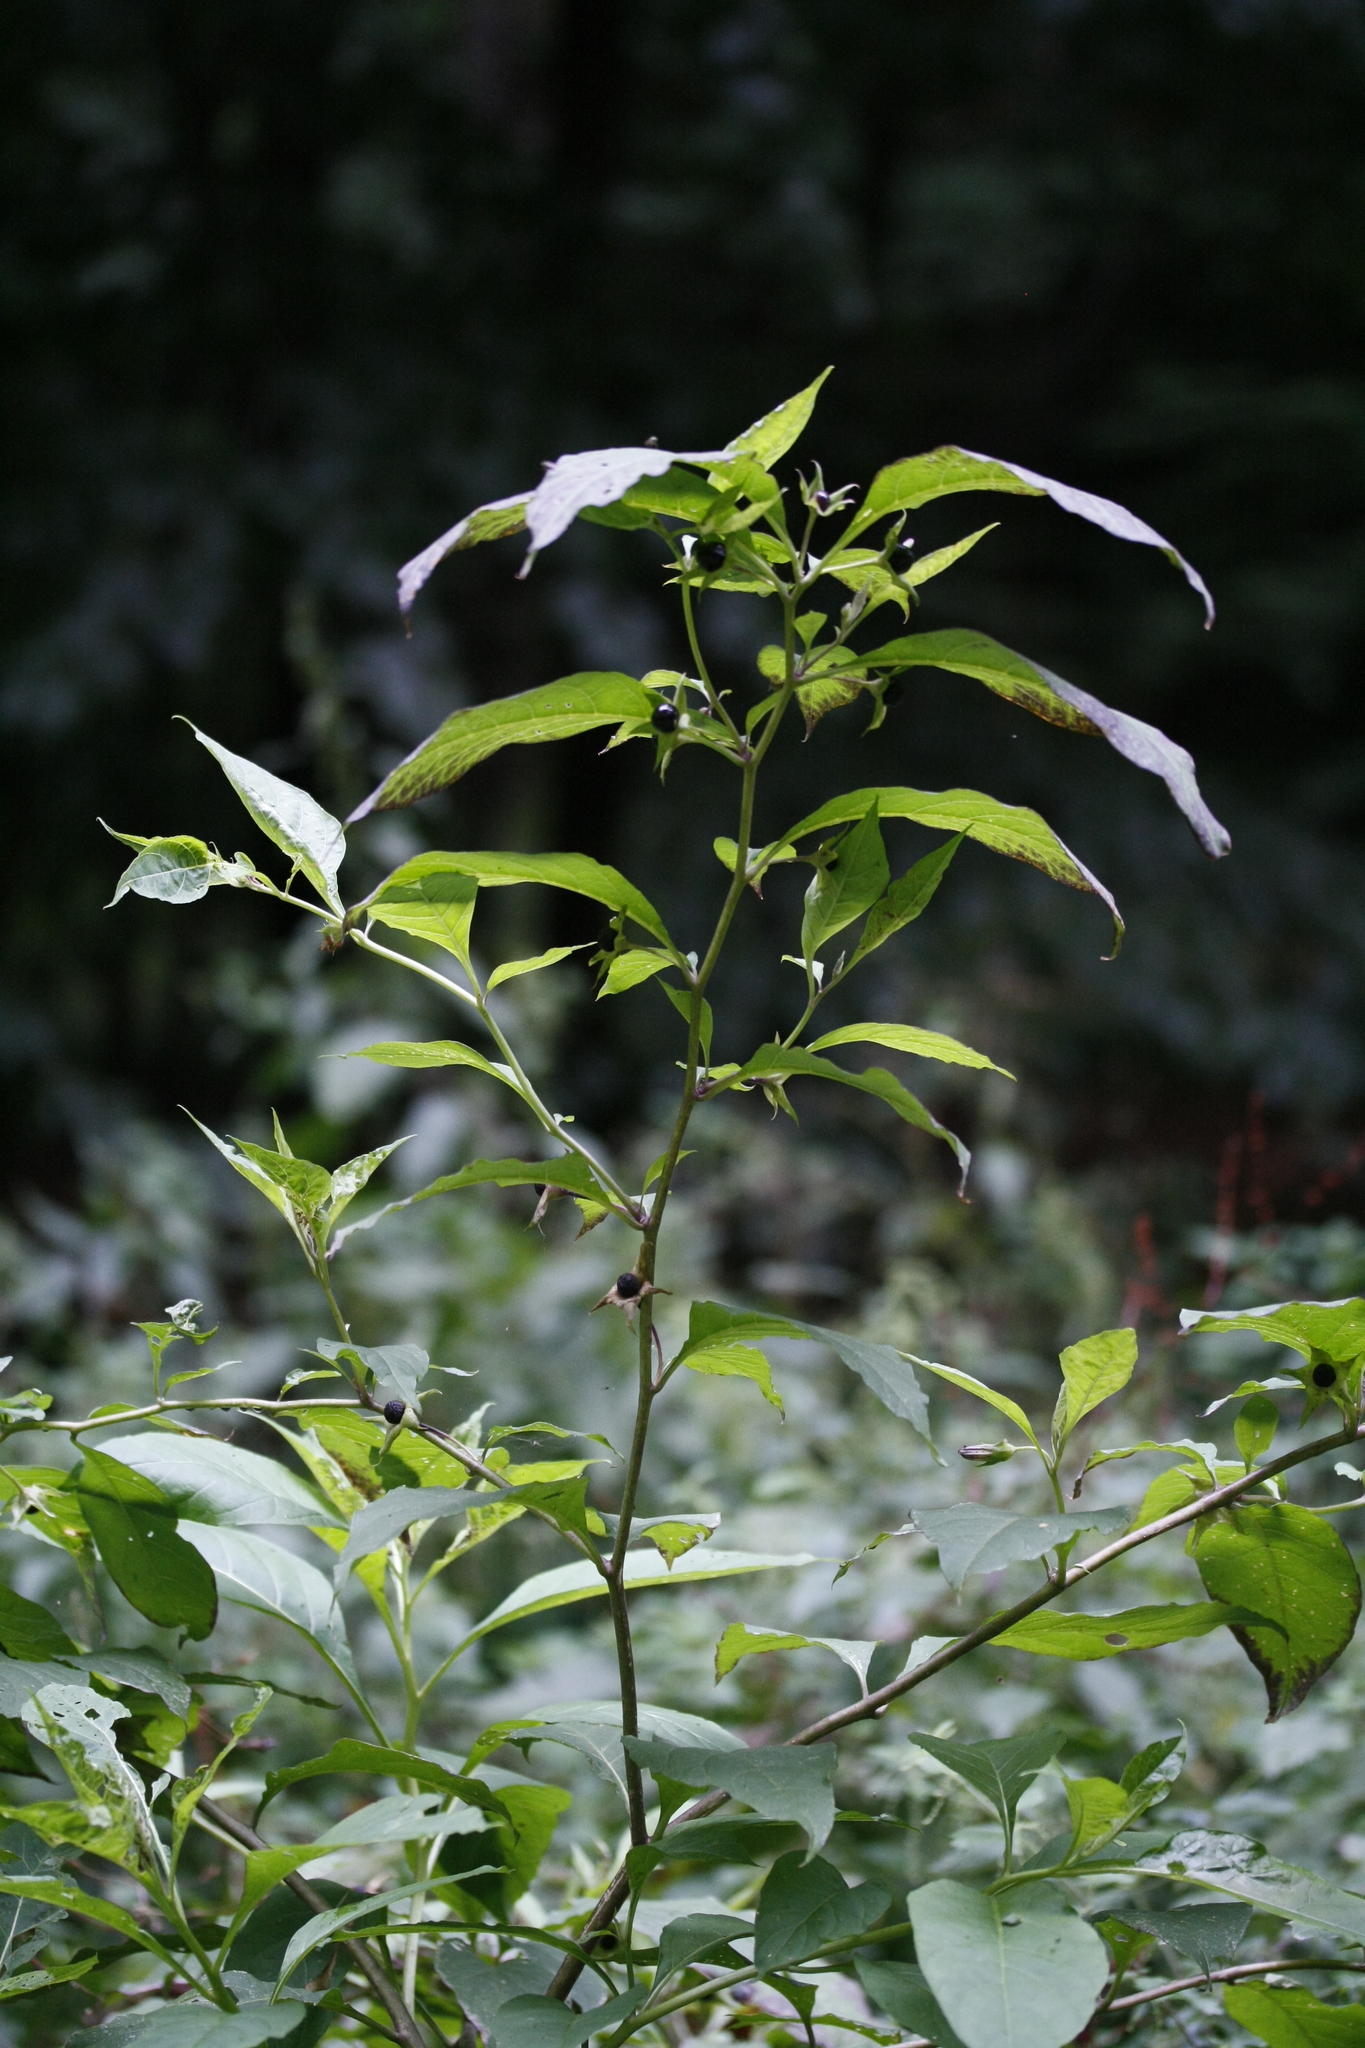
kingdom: Plantae
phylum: Tracheophyta
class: Magnoliopsida
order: Solanales
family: Solanaceae
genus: Atropa
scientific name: Atropa belladonna
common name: Deadly nightshade
